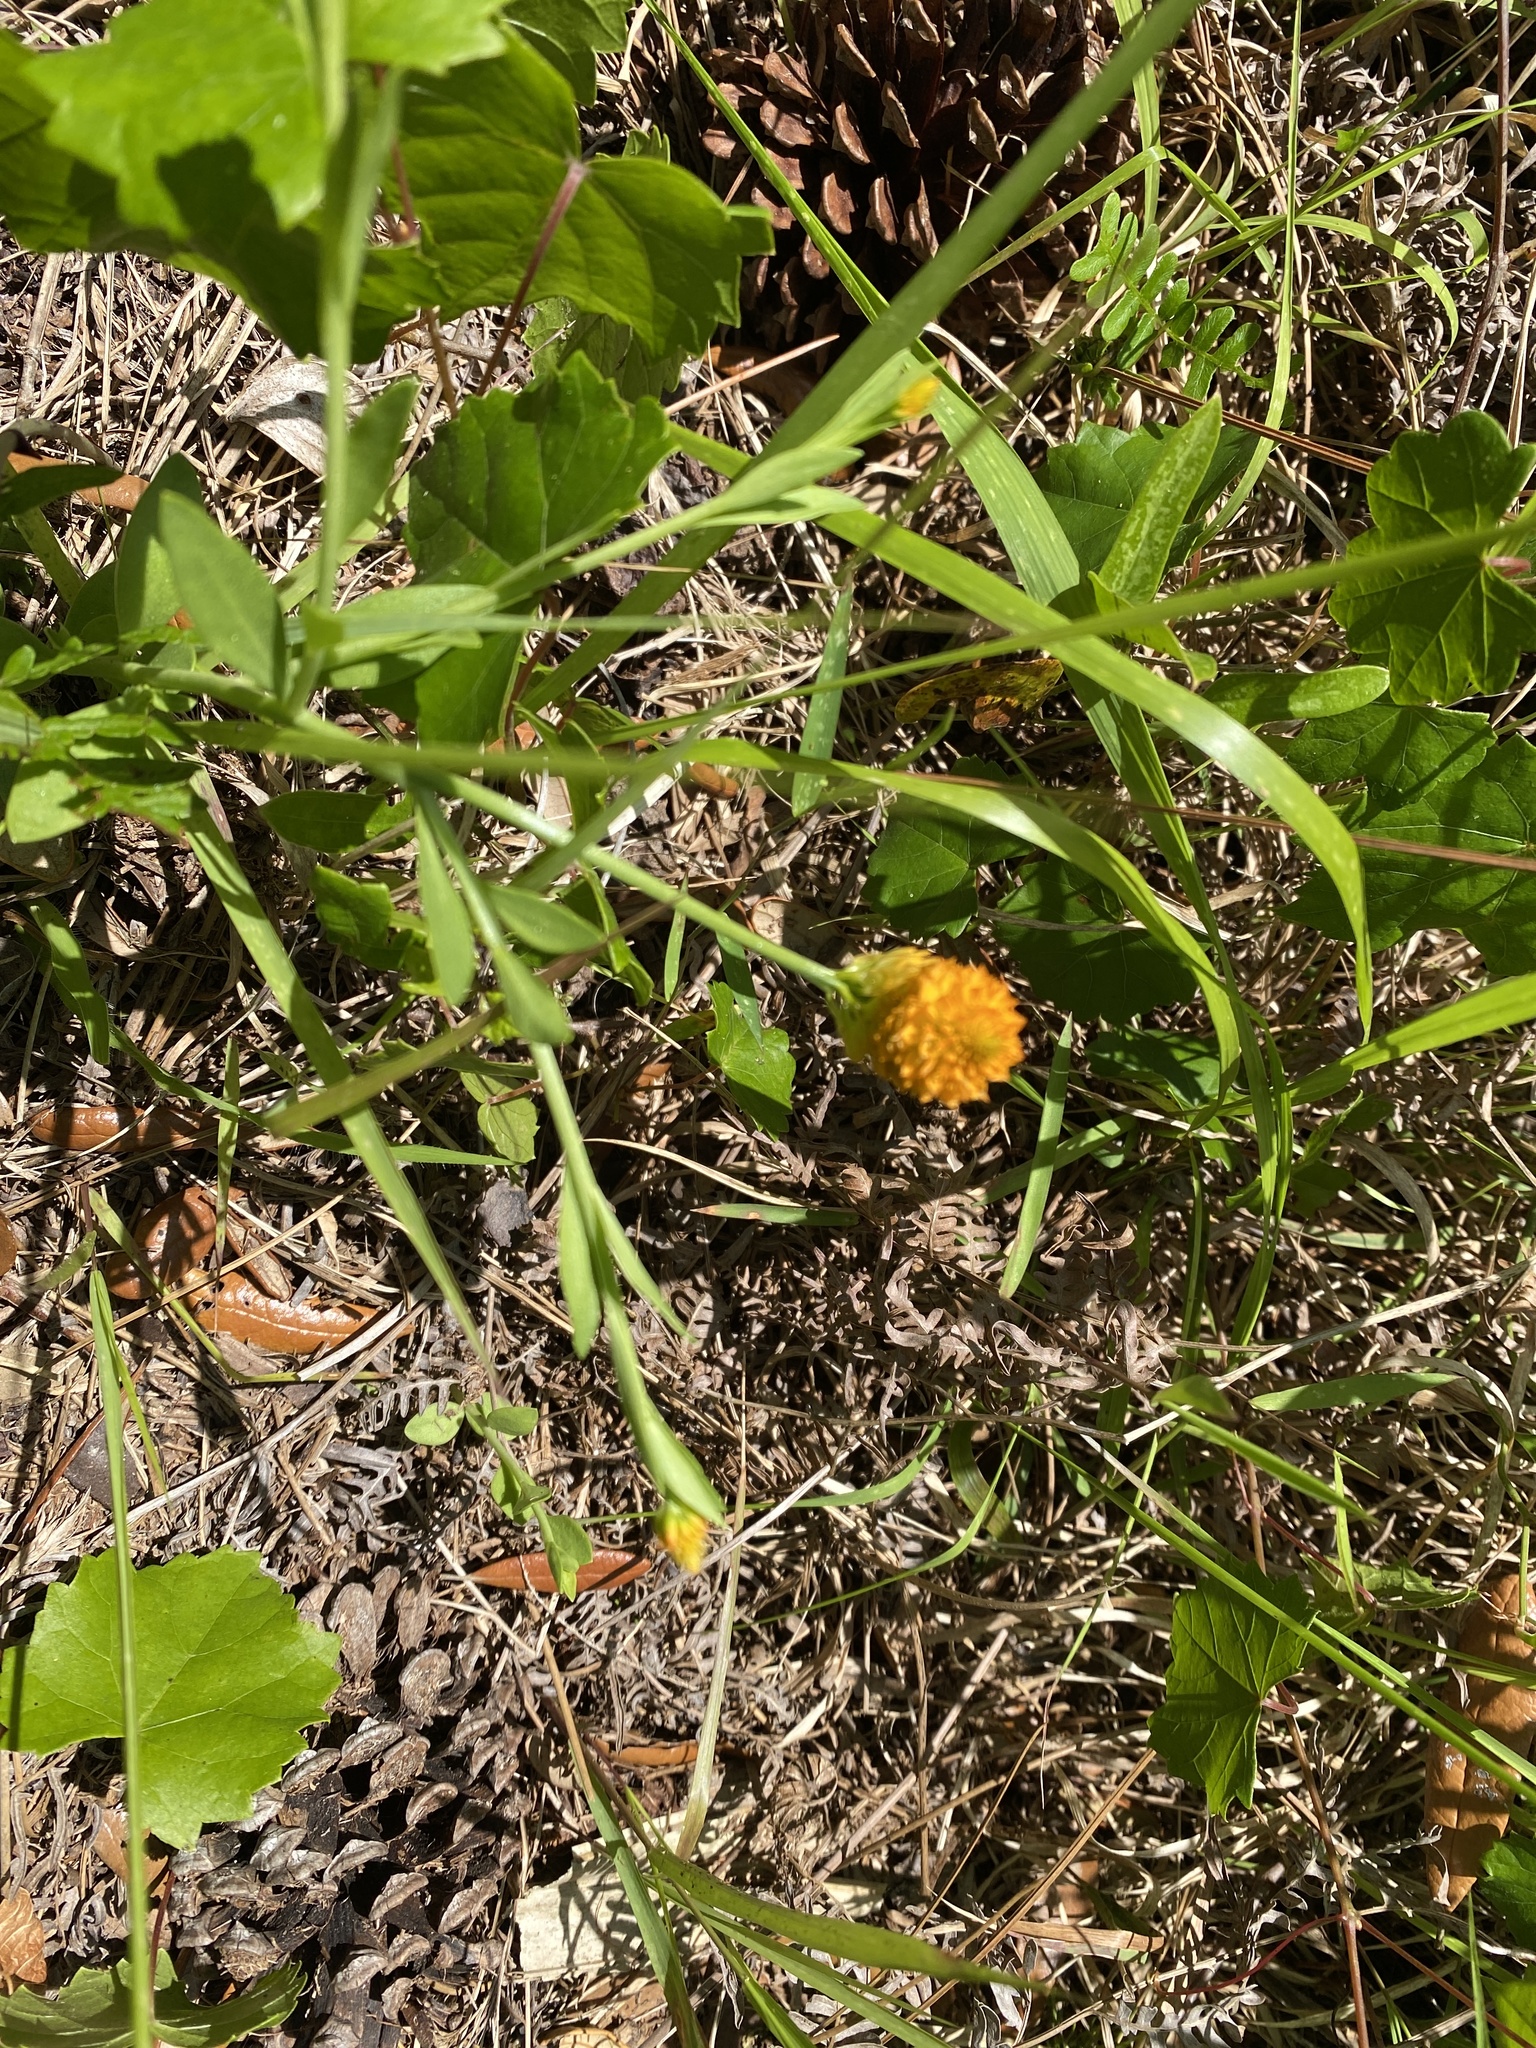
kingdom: Plantae
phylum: Tracheophyta
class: Magnoliopsida
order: Fabales
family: Polygalaceae
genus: Polygala
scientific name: Polygala lutea
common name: Orange milkwort
